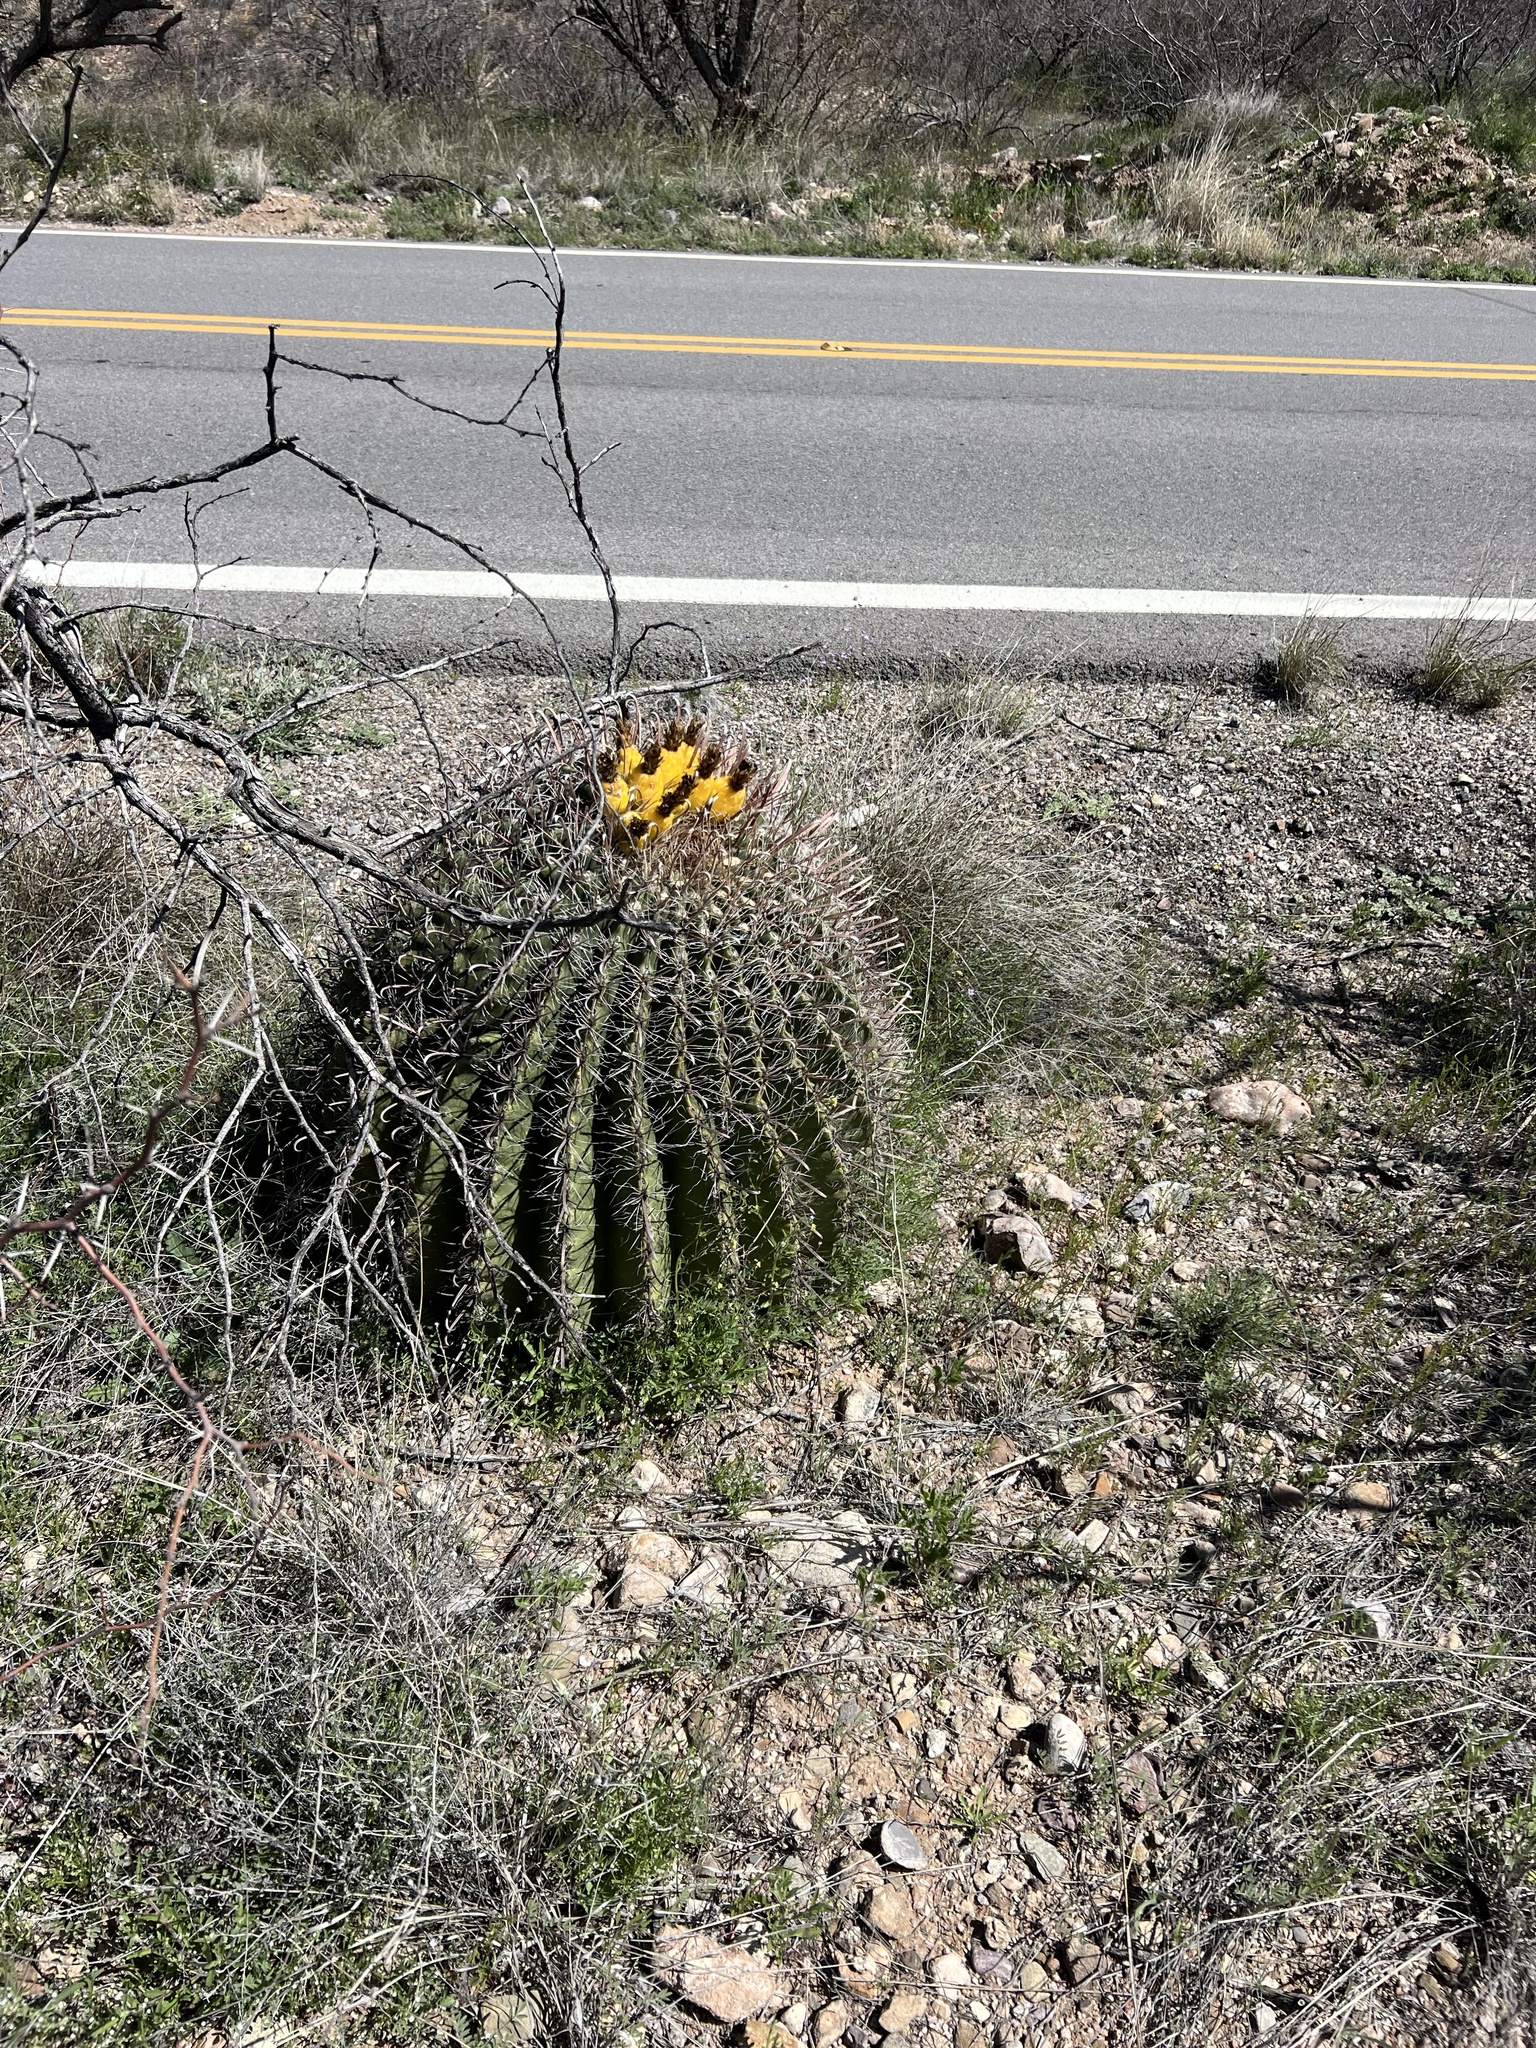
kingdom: Plantae
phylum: Tracheophyta
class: Magnoliopsida
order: Caryophyllales
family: Cactaceae
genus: Ferocactus
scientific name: Ferocactus wislizeni
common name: Candy barrel cactus
